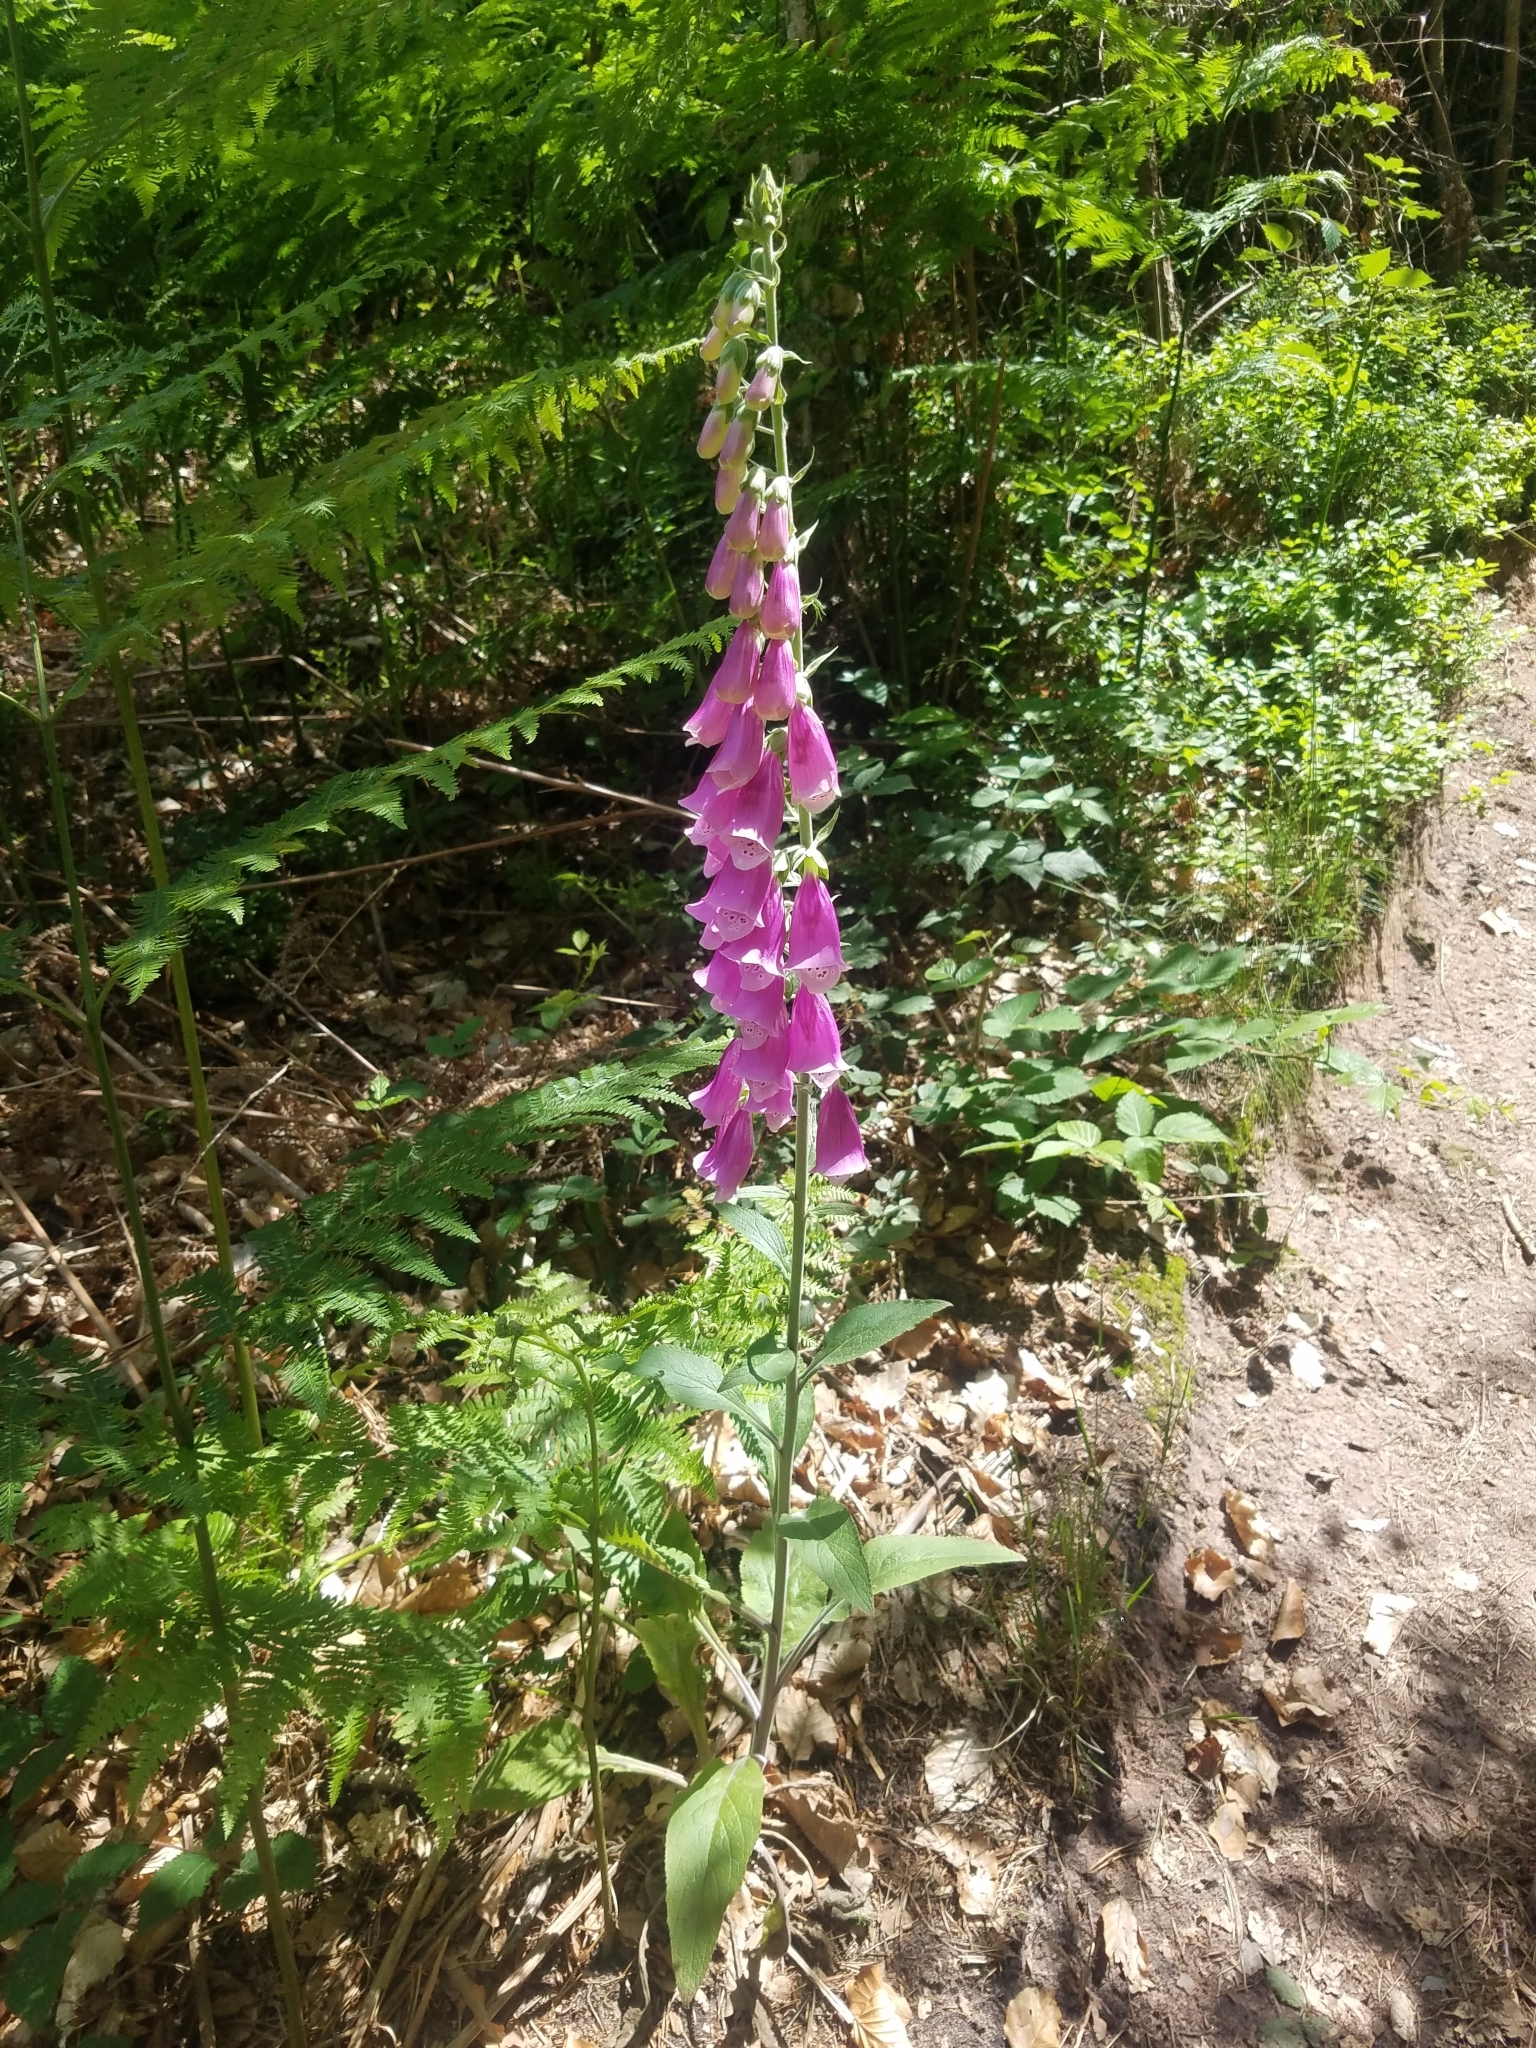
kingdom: Plantae
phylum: Tracheophyta
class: Magnoliopsida
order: Lamiales
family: Plantaginaceae
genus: Digitalis
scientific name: Digitalis purpurea
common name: Foxglove
